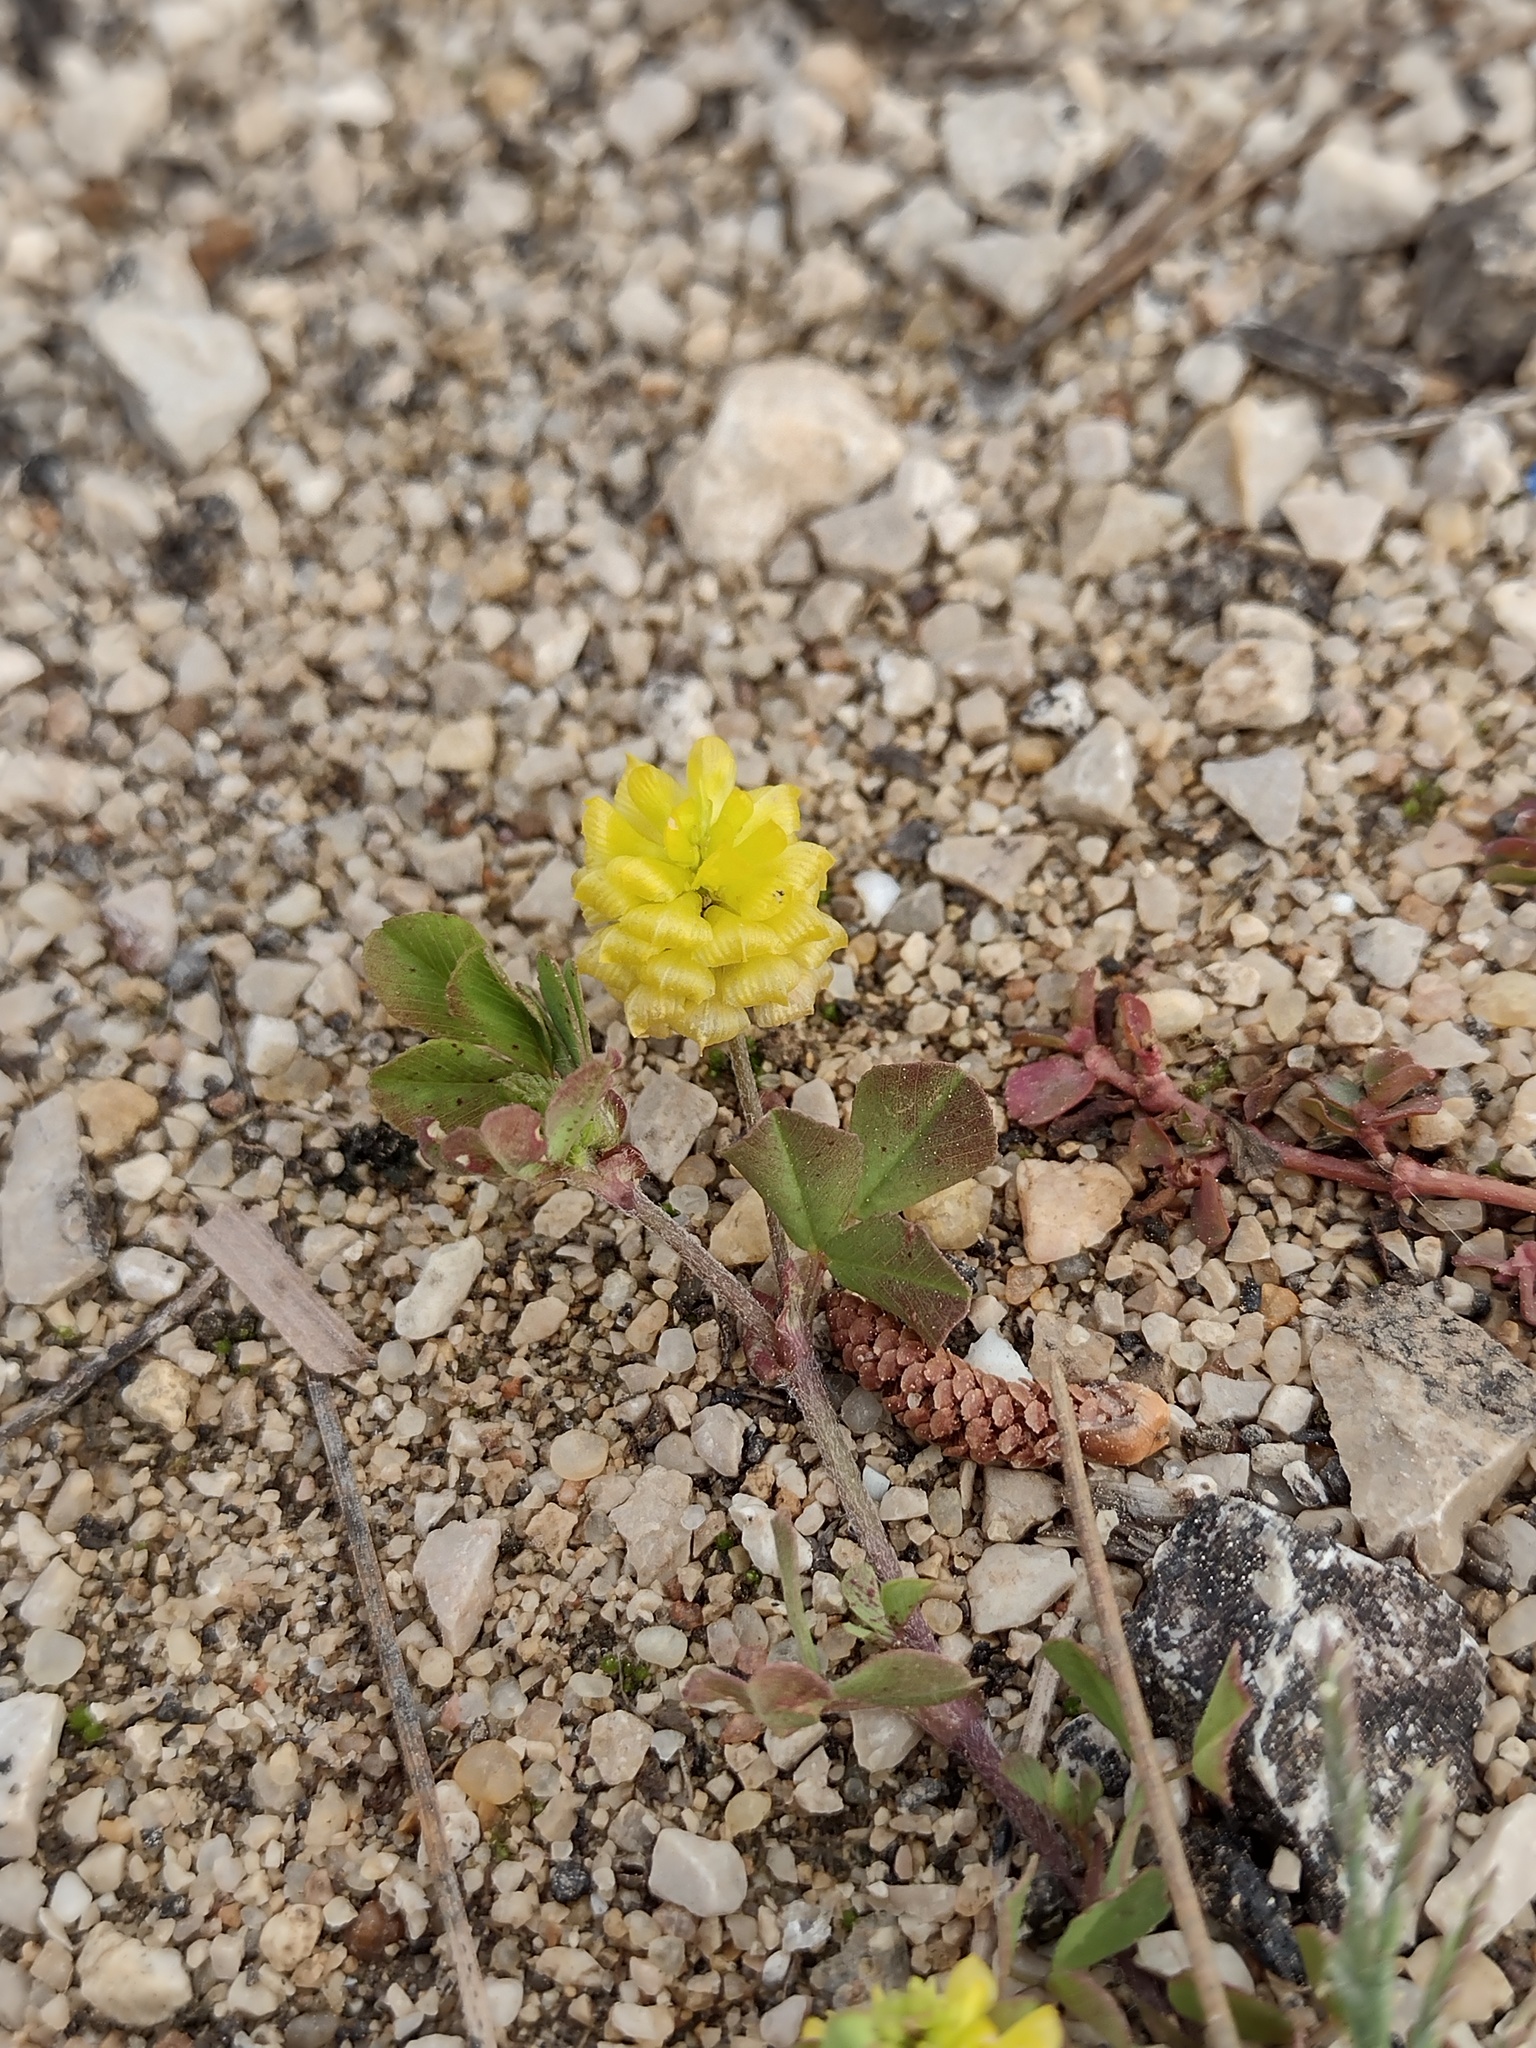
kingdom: Plantae
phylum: Tracheophyta
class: Magnoliopsida
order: Fabales
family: Fabaceae
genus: Trifolium
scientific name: Trifolium campestre
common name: Field clover
